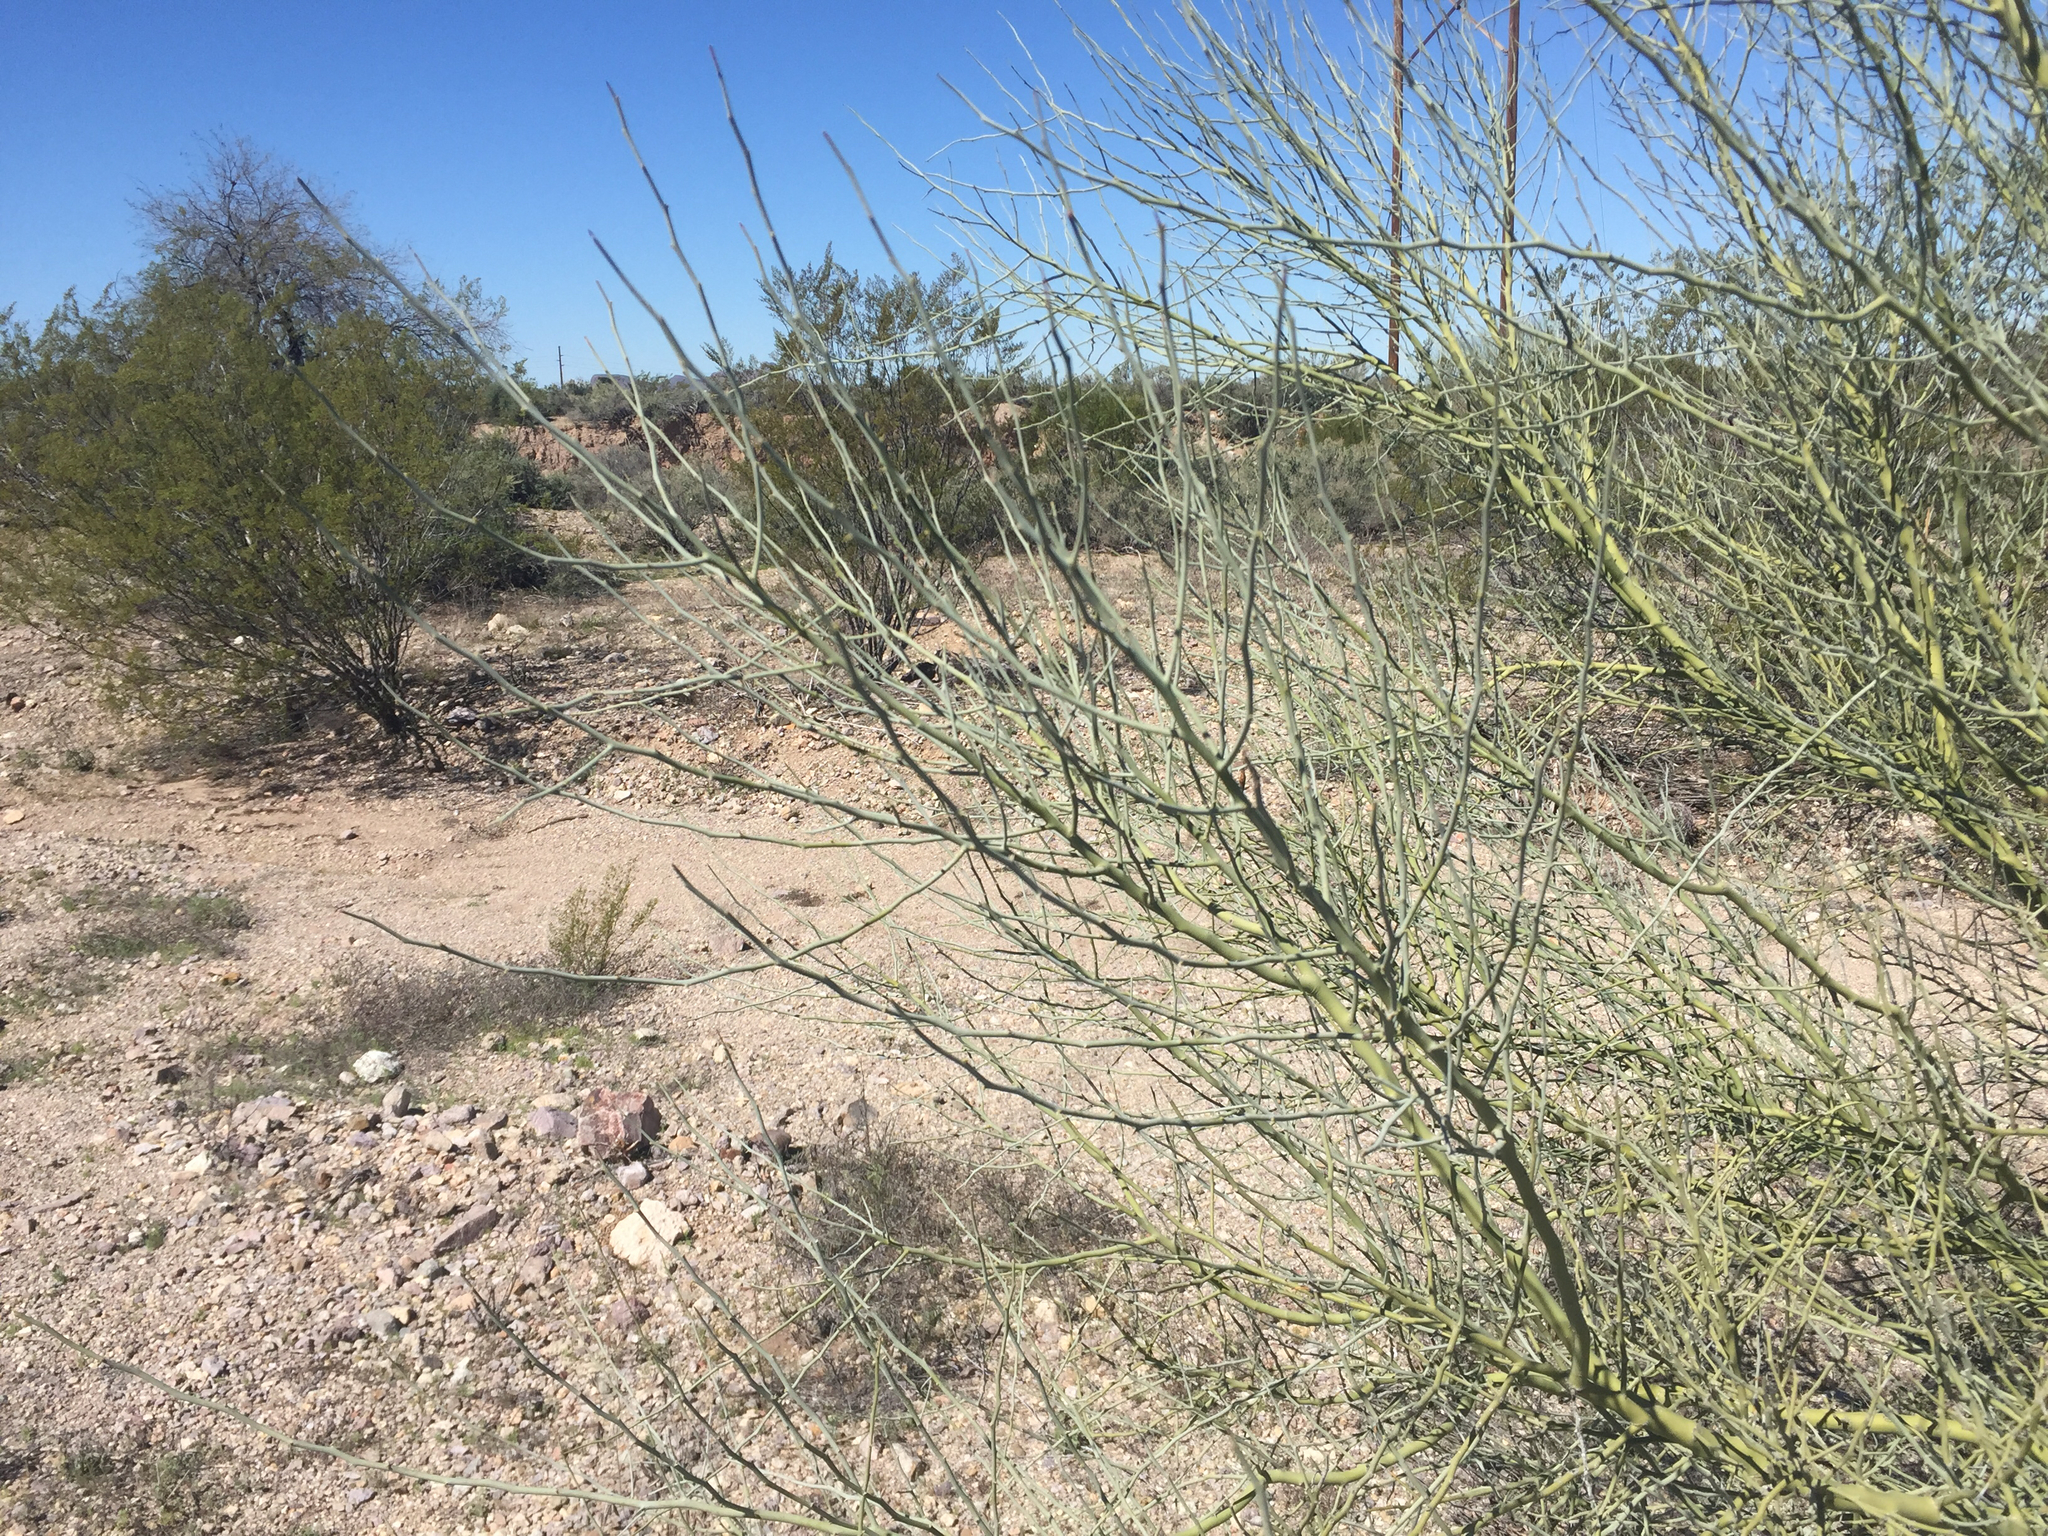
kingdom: Plantae
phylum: Tracheophyta
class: Magnoliopsida
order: Fabales
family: Fabaceae
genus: Parkinsonia
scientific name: Parkinsonia florida
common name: Blue paloverde
